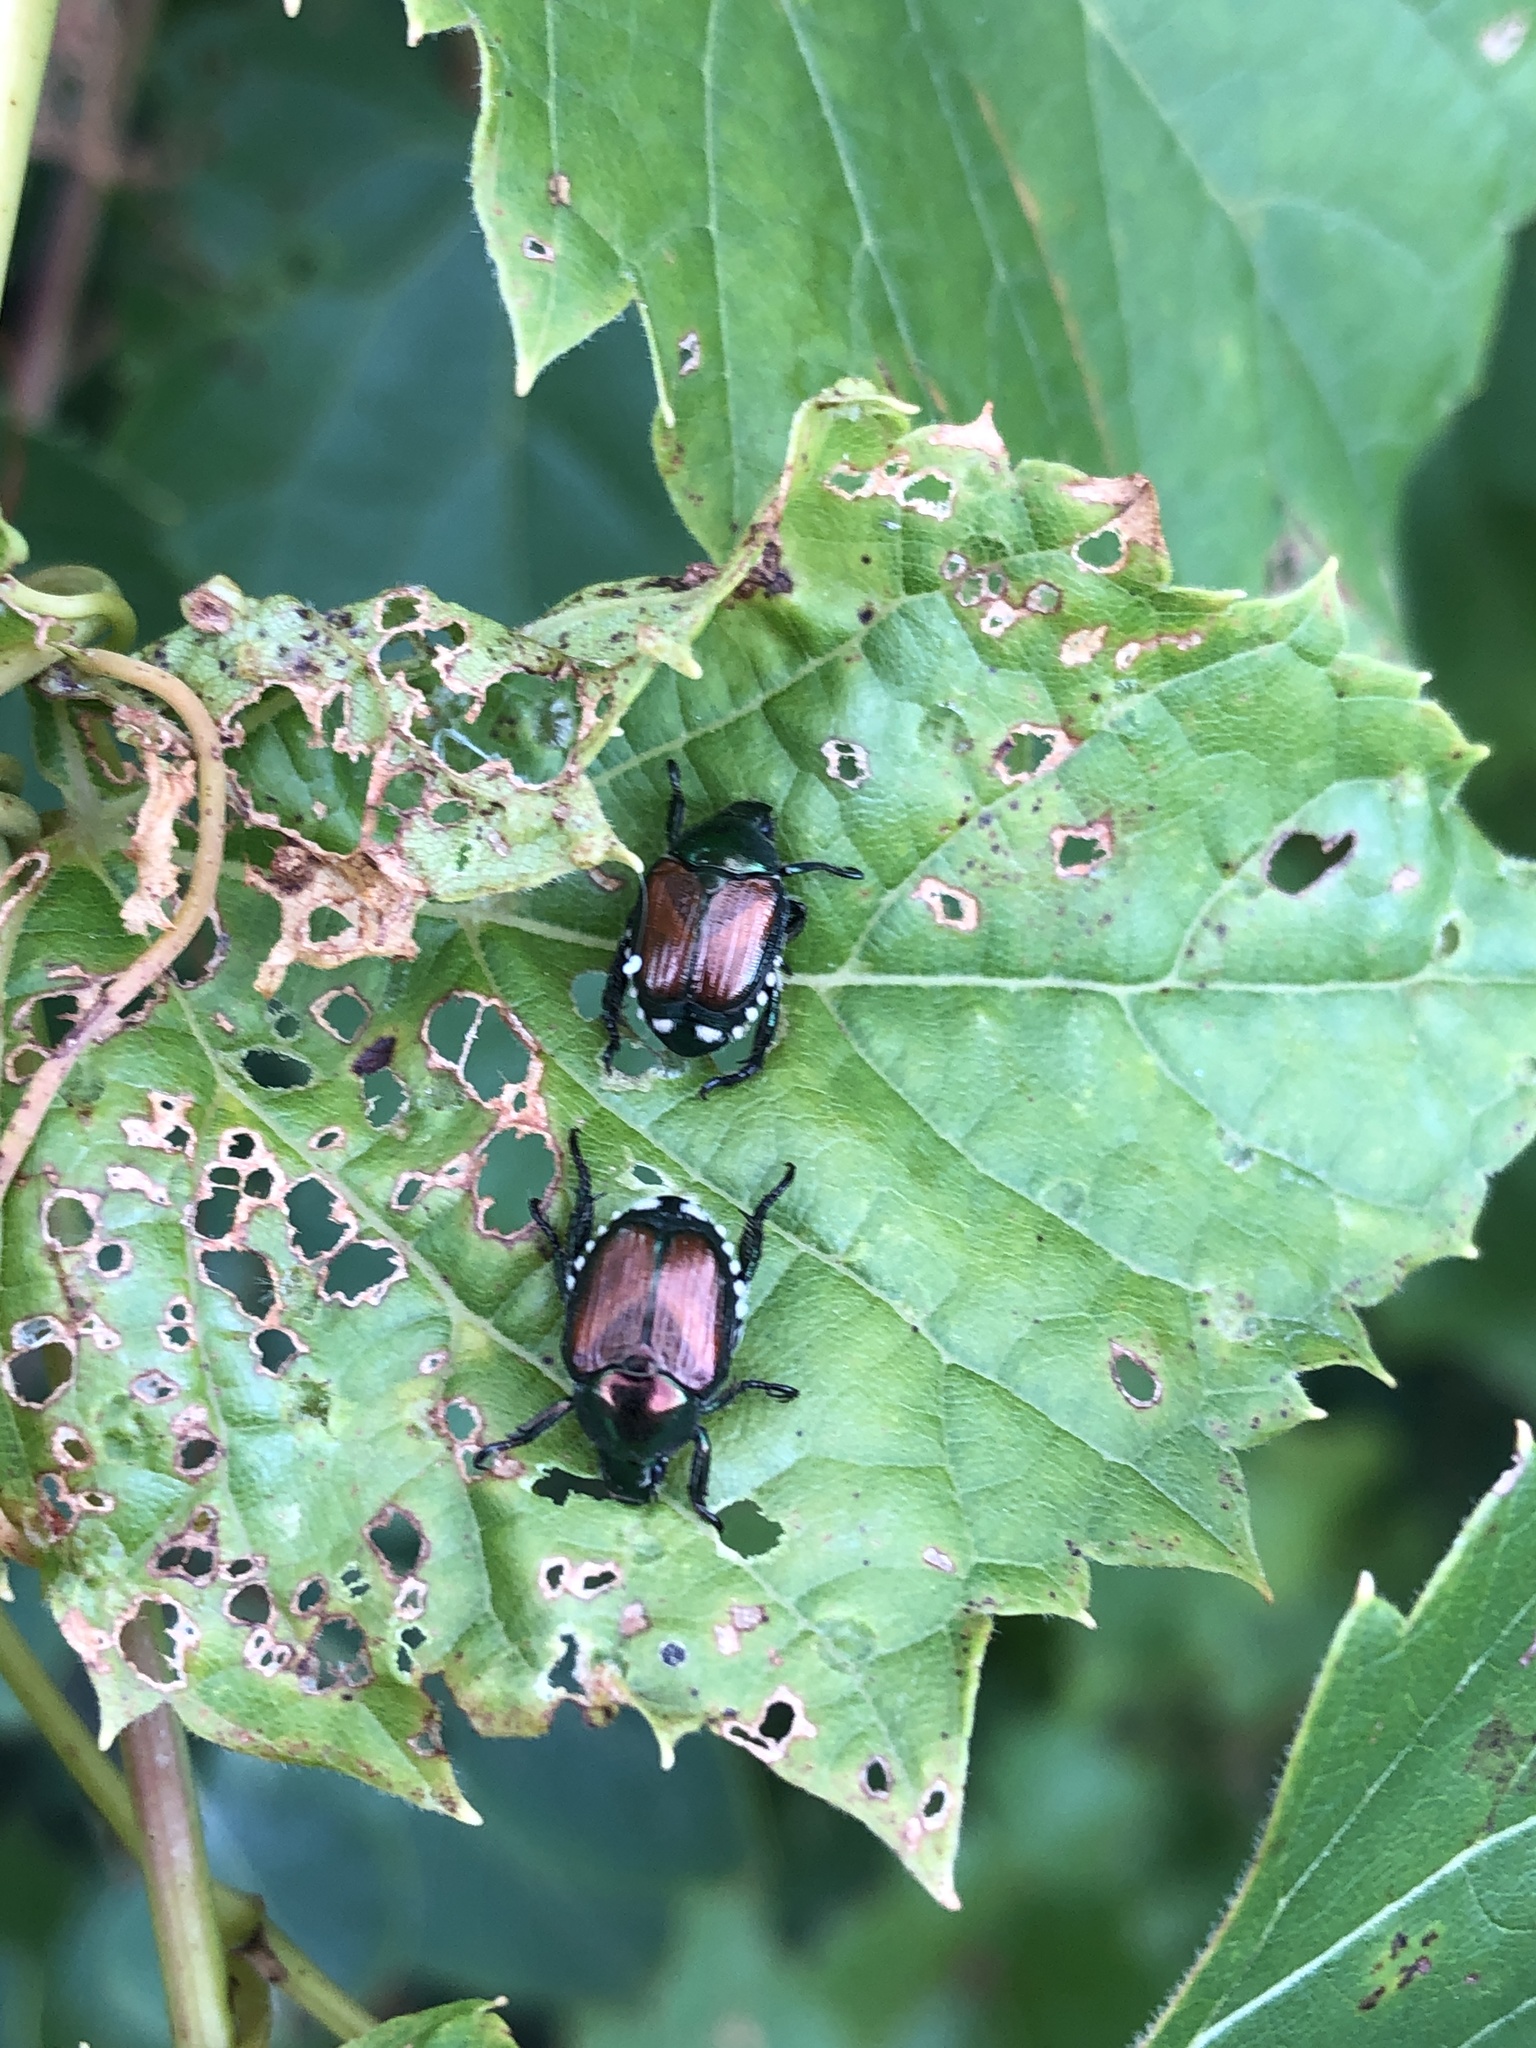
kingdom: Animalia
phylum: Arthropoda
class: Insecta
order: Coleoptera
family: Scarabaeidae
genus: Popillia
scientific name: Popillia japonica
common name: Japanese beetle
